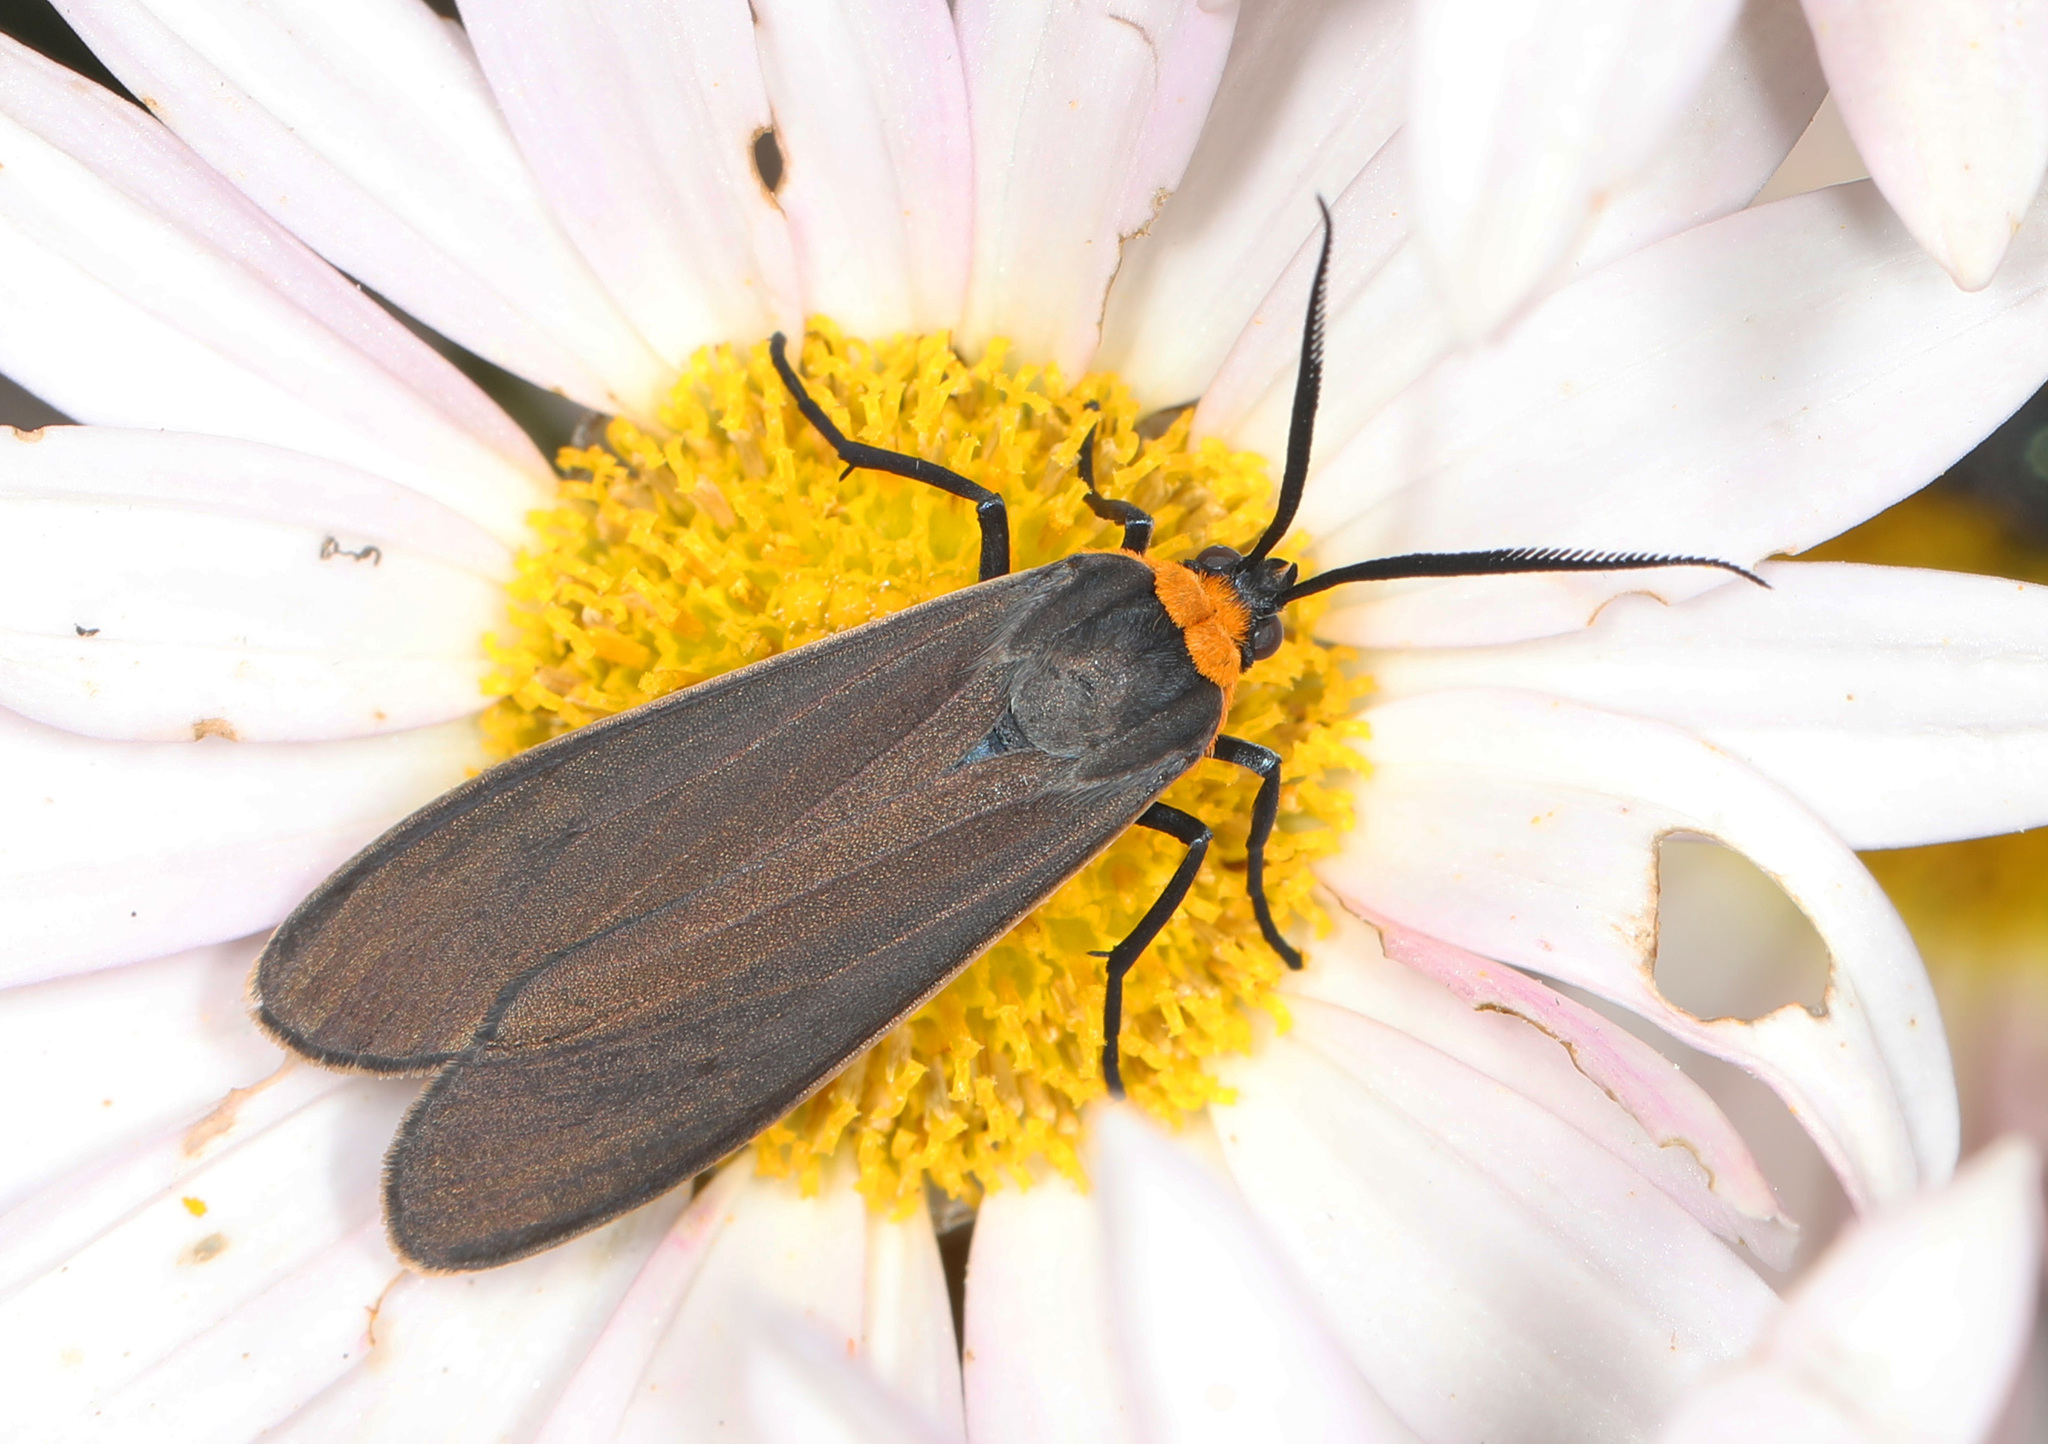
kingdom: Animalia
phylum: Arthropoda
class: Insecta
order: Lepidoptera
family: Erebidae
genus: Cisseps
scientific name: Cisseps fulvicollis
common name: Yellow-collared scape moth
